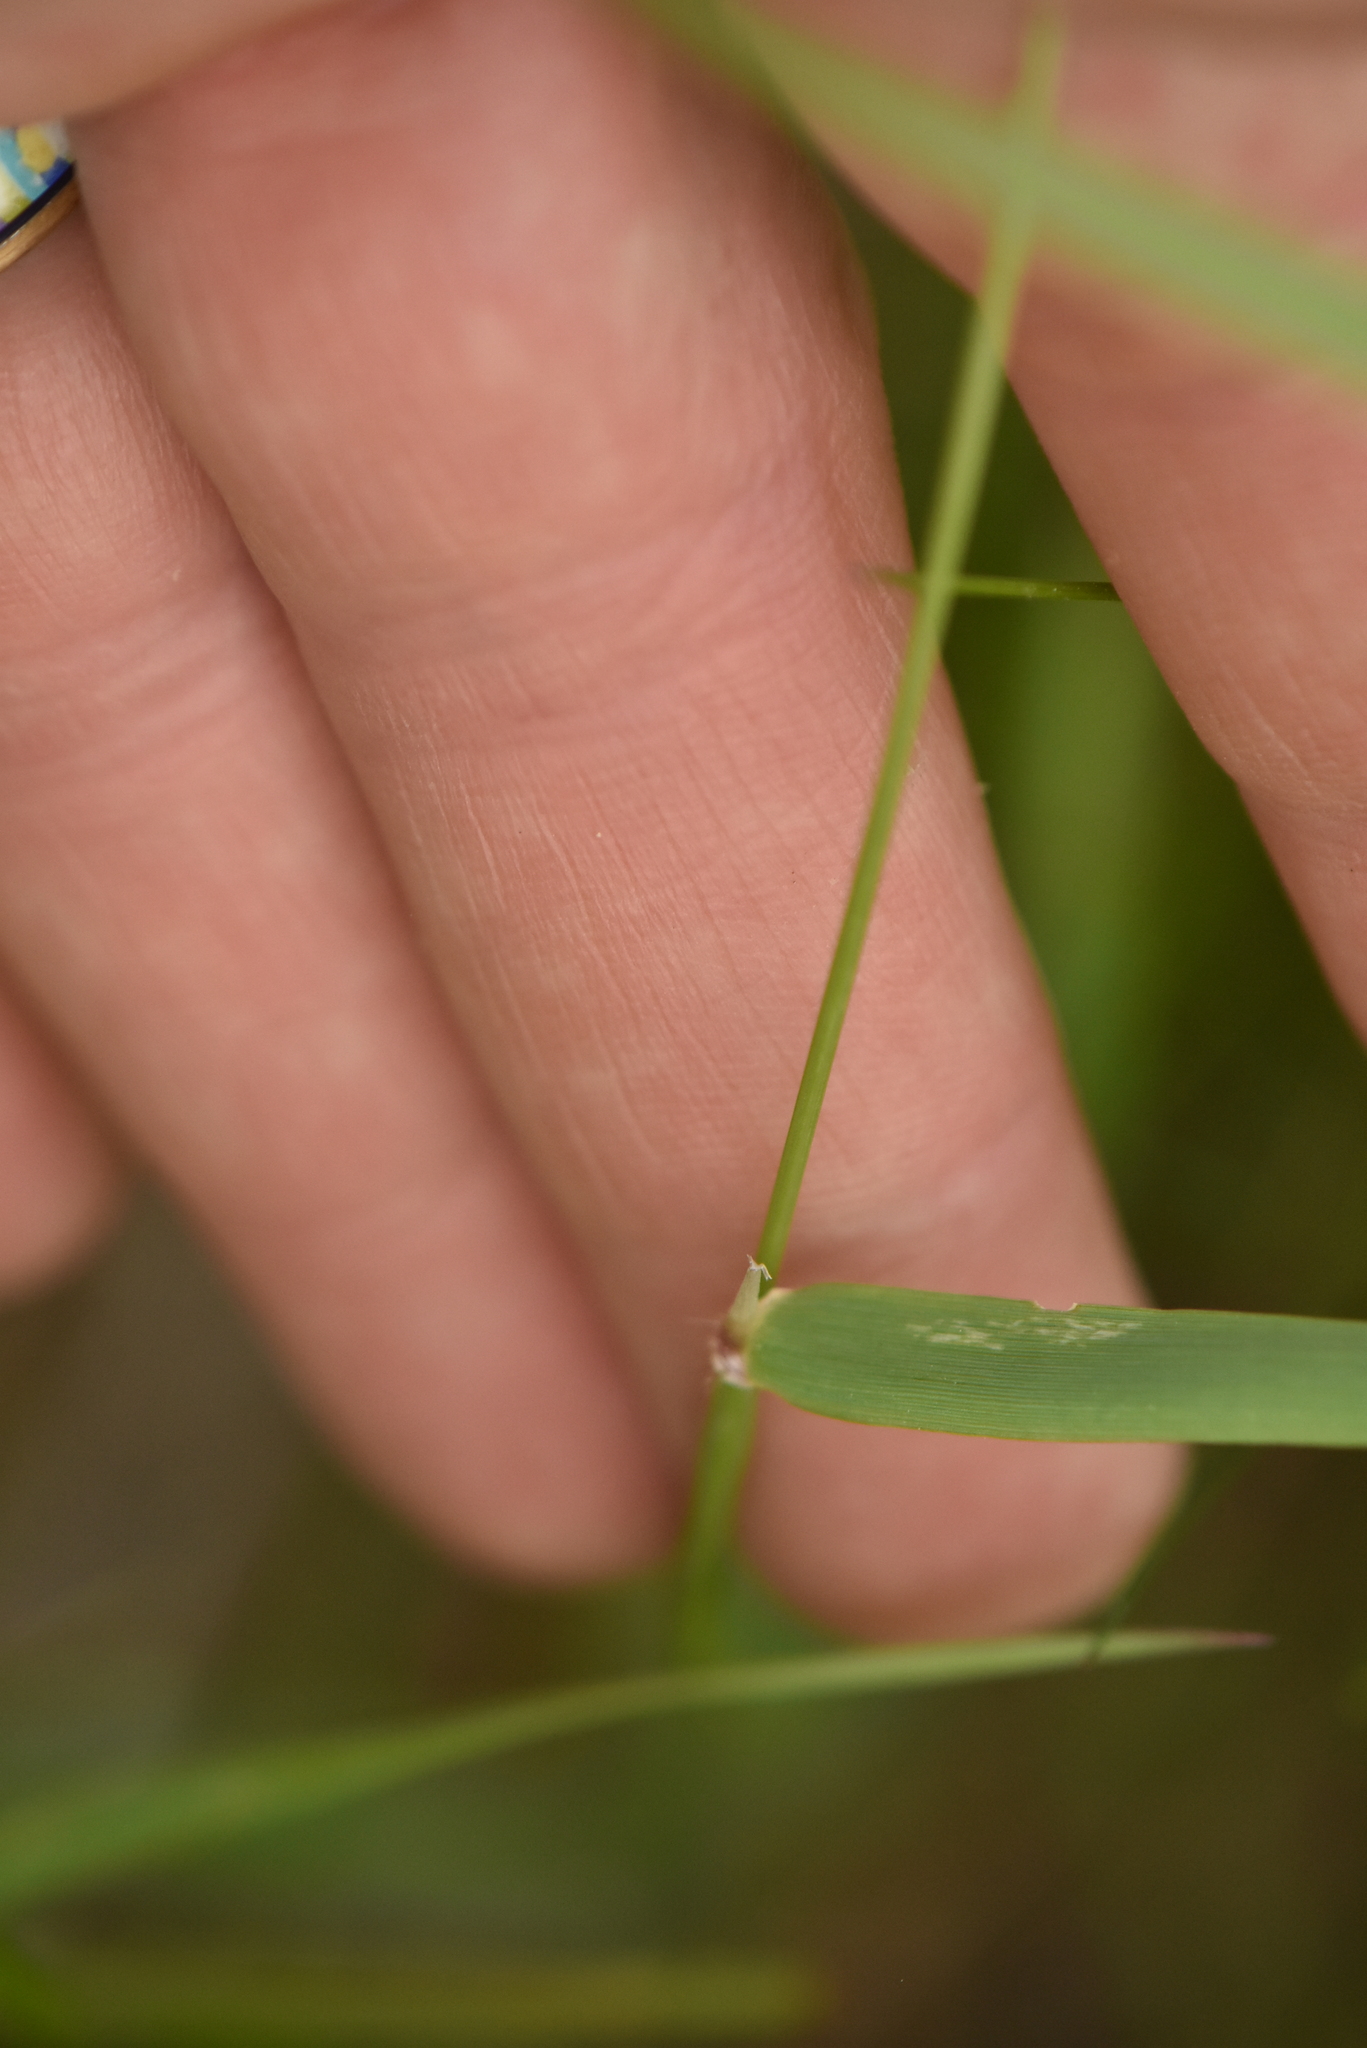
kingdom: Plantae
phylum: Tracheophyta
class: Liliopsida
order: Poales
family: Poaceae
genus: Anthoxanthum
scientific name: Anthoxanthum odoratum
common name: Sweet vernalgrass
